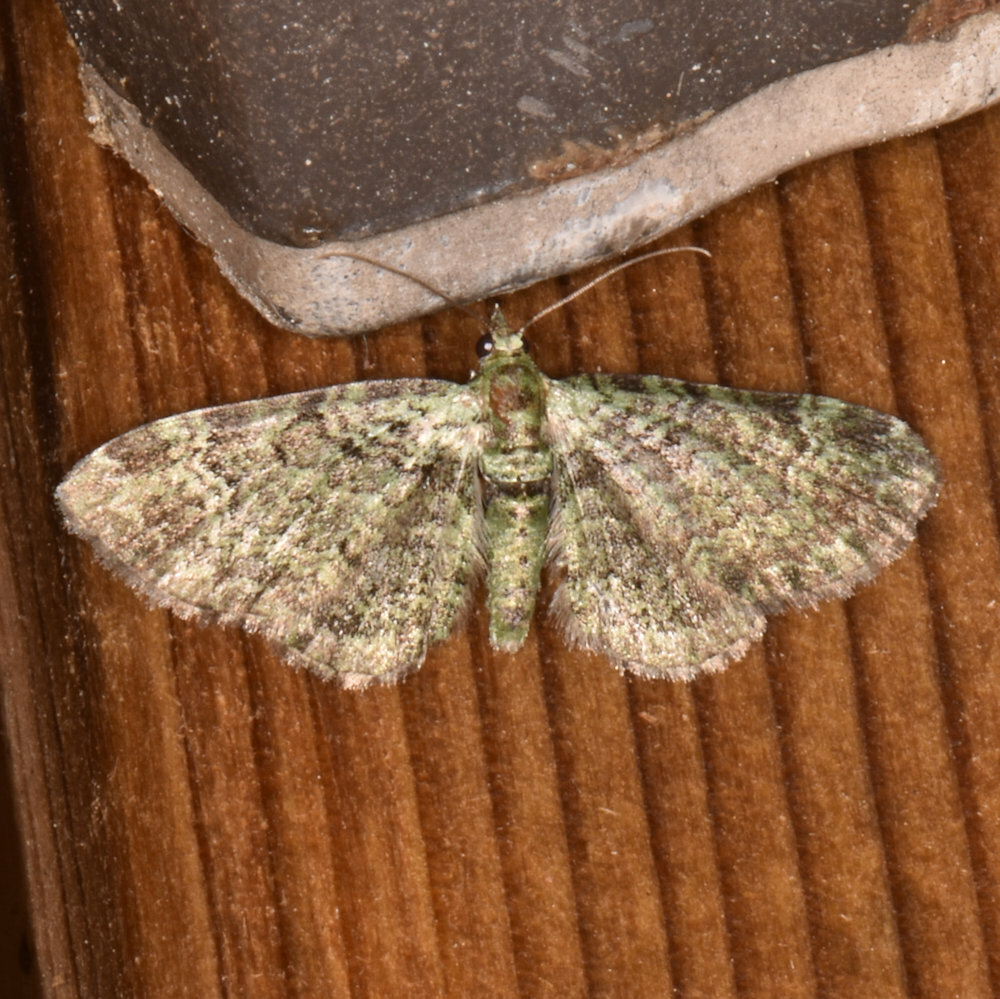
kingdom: Animalia
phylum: Arthropoda
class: Insecta
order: Lepidoptera
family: Geometridae
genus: Pasiphila
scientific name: Pasiphila rectangulata
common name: Green pug
